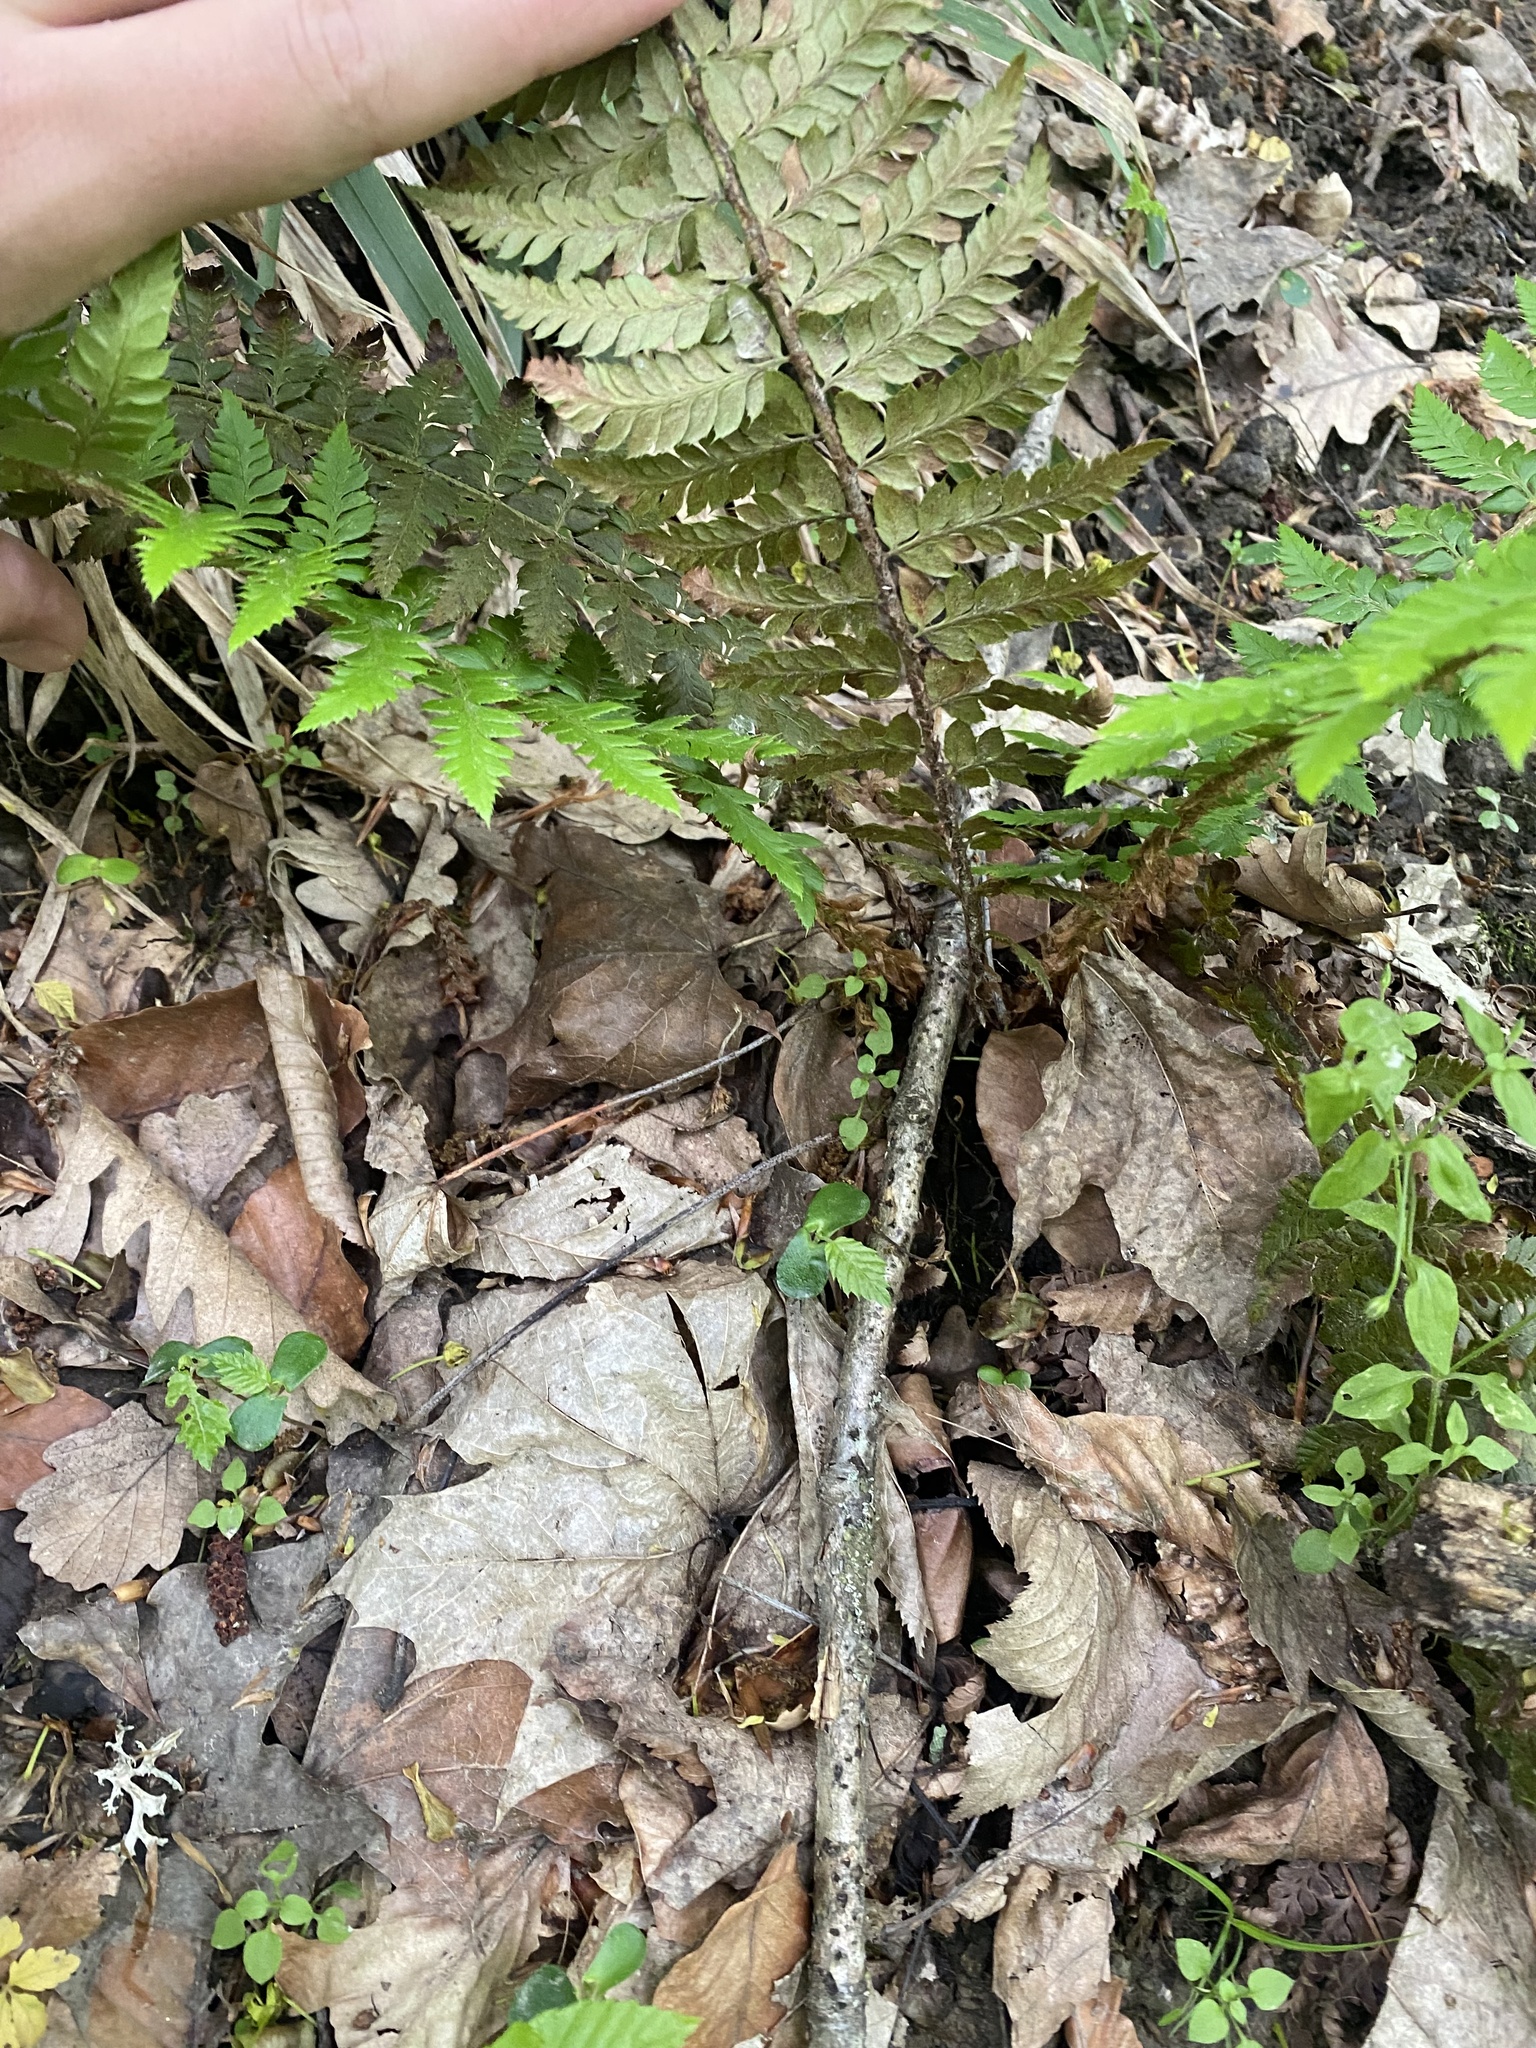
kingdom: Plantae
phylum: Tracheophyta
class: Polypodiopsida
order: Polypodiales
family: Dryopteridaceae
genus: Polystichum
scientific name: Polystichum aculeatum
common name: Hard shield-fern
